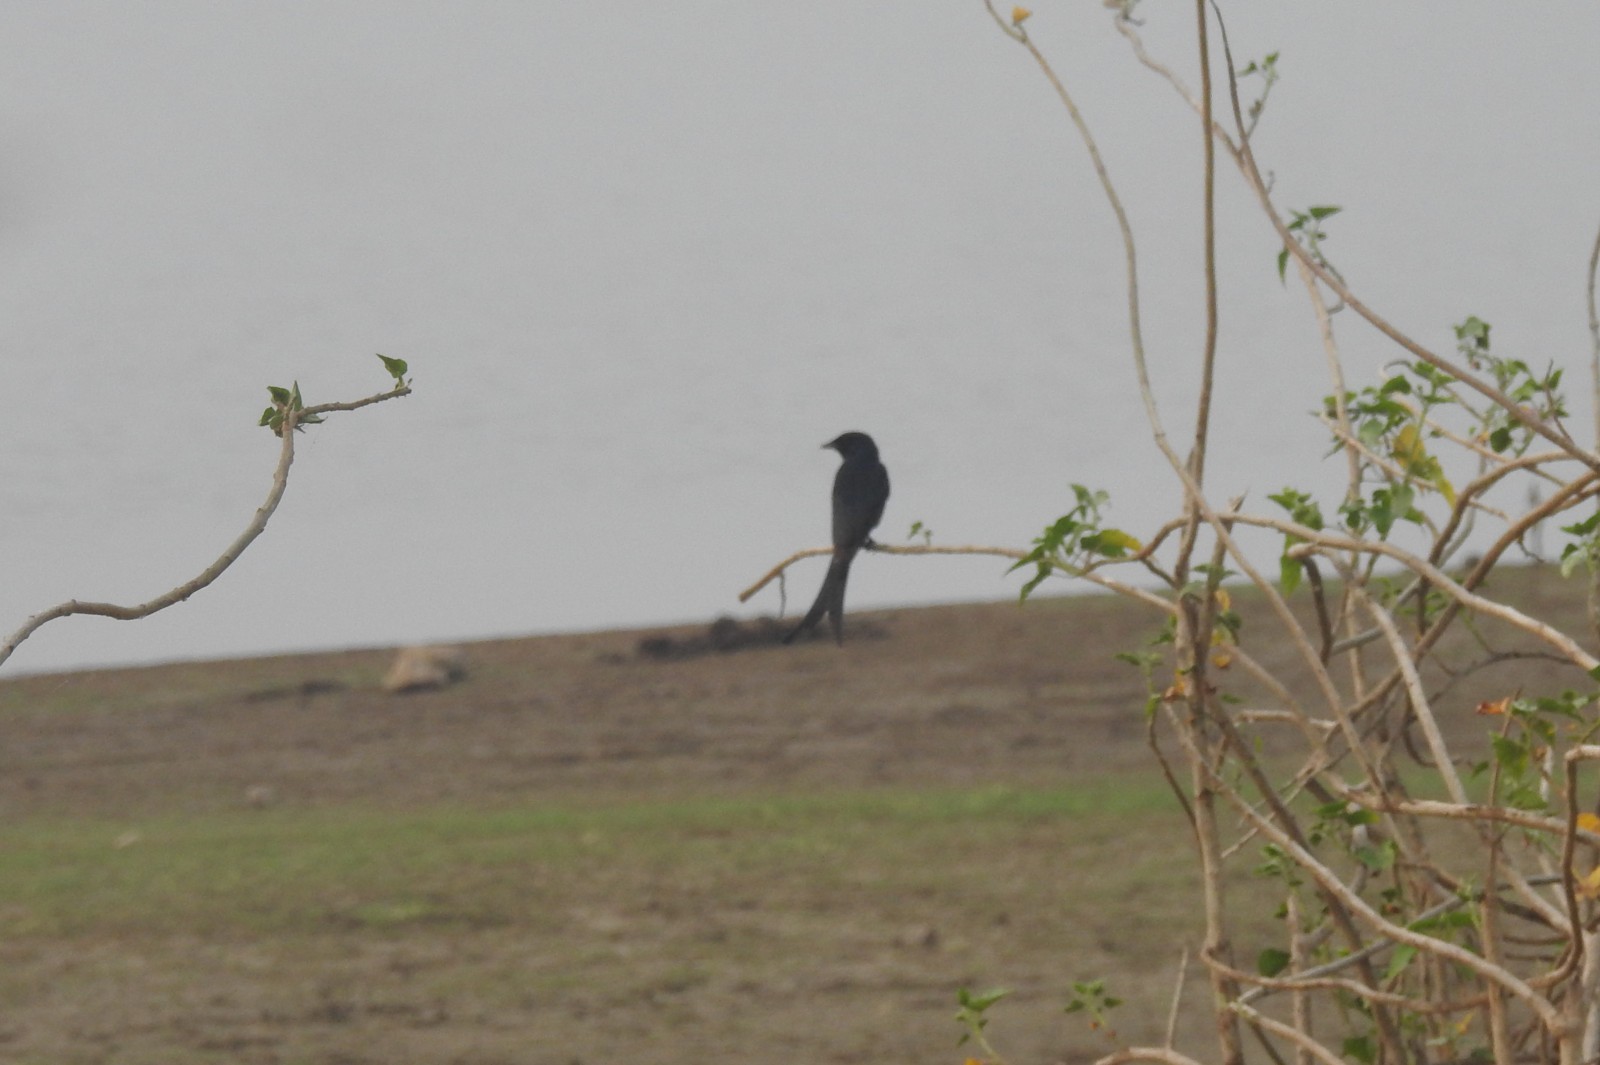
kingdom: Animalia
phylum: Chordata
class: Aves
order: Passeriformes
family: Dicruridae
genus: Dicrurus
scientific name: Dicrurus macrocercus
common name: Black drongo
